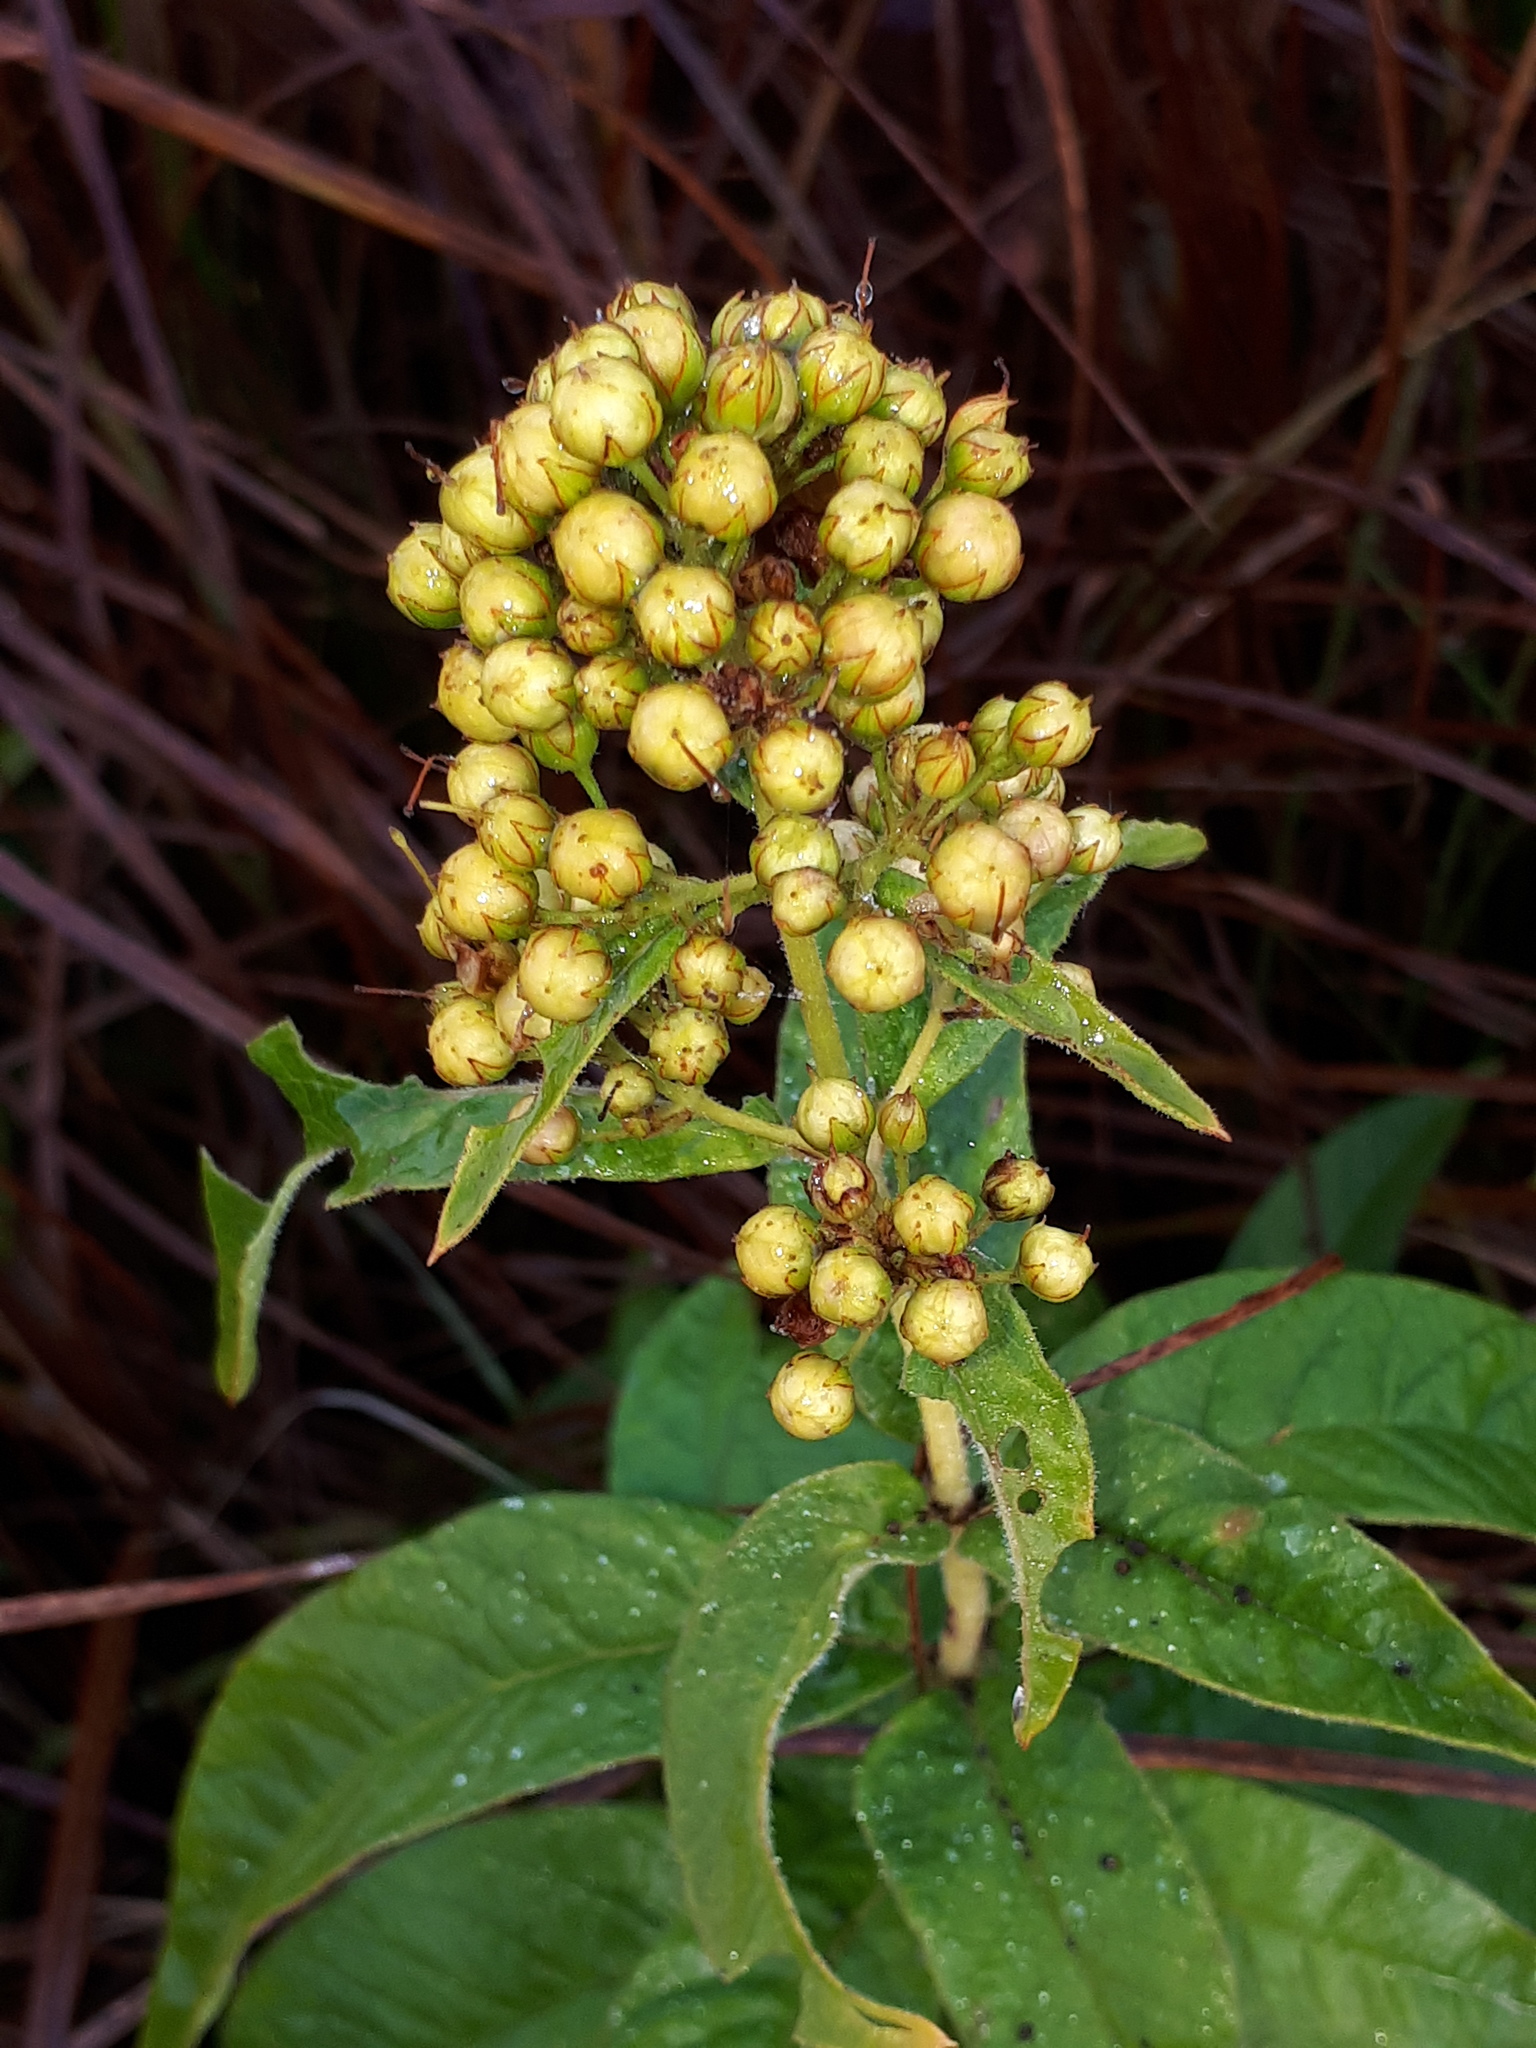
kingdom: Plantae
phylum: Tracheophyta
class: Magnoliopsida
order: Ericales
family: Primulaceae
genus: Lysimachia
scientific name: Lysimachia vulgaris
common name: Yellow loosestrife
